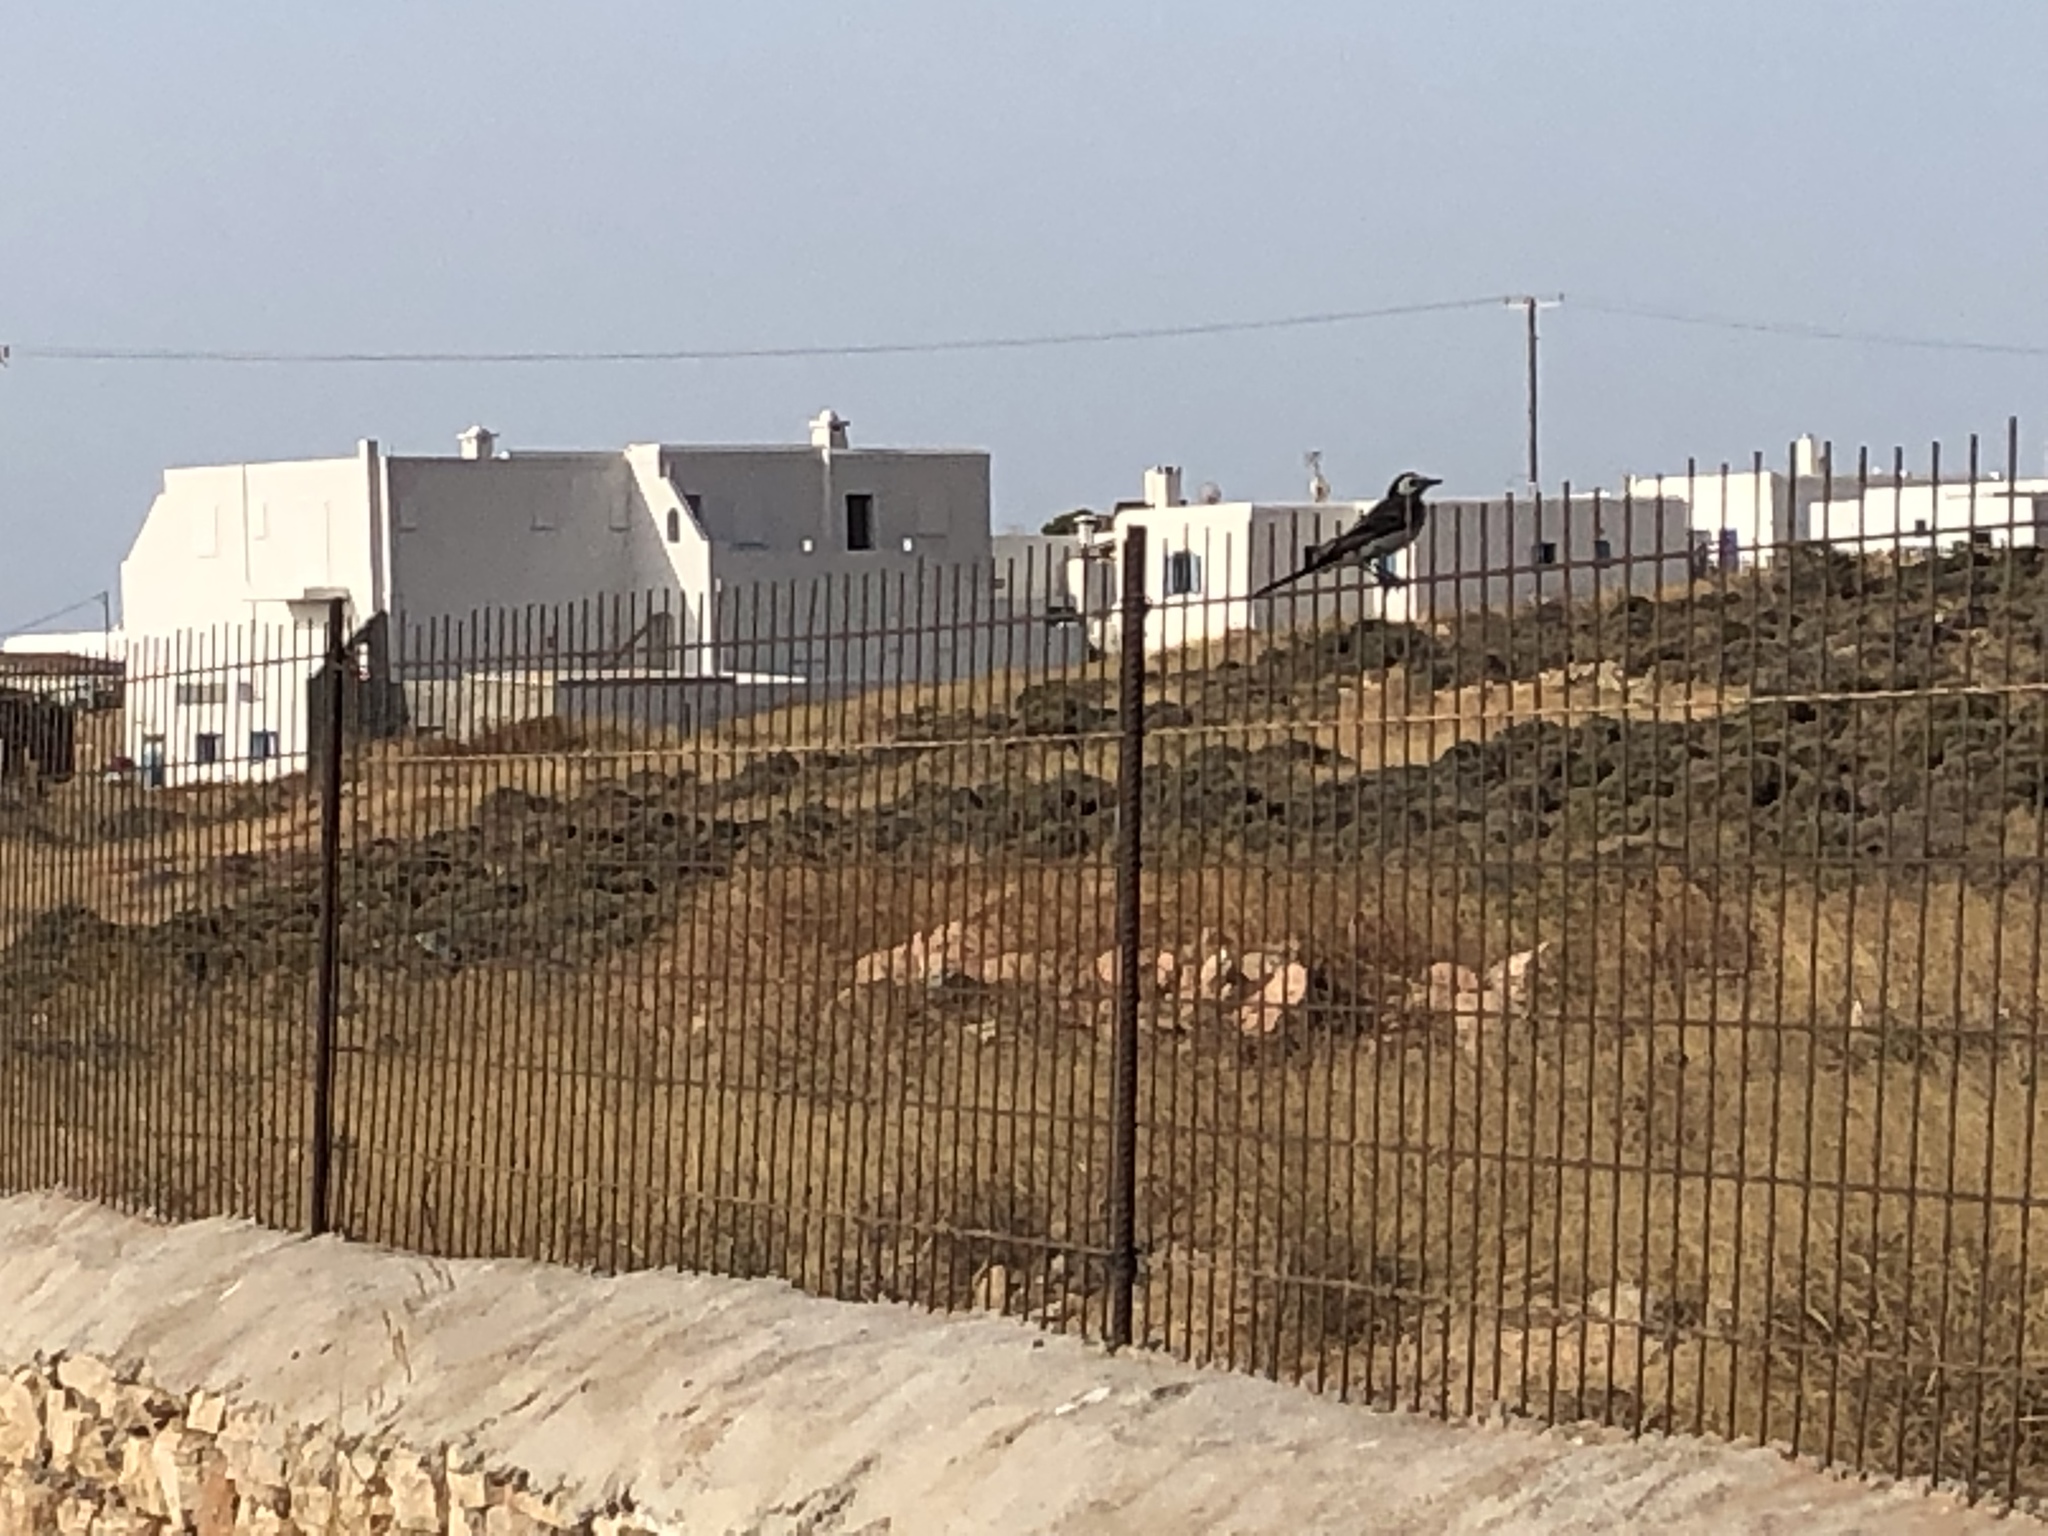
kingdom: Animalia
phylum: Chordata
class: Aves
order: Passeriformes
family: Motacillidae
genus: Motacilla
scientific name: Motacilla alba
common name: White wagtail
